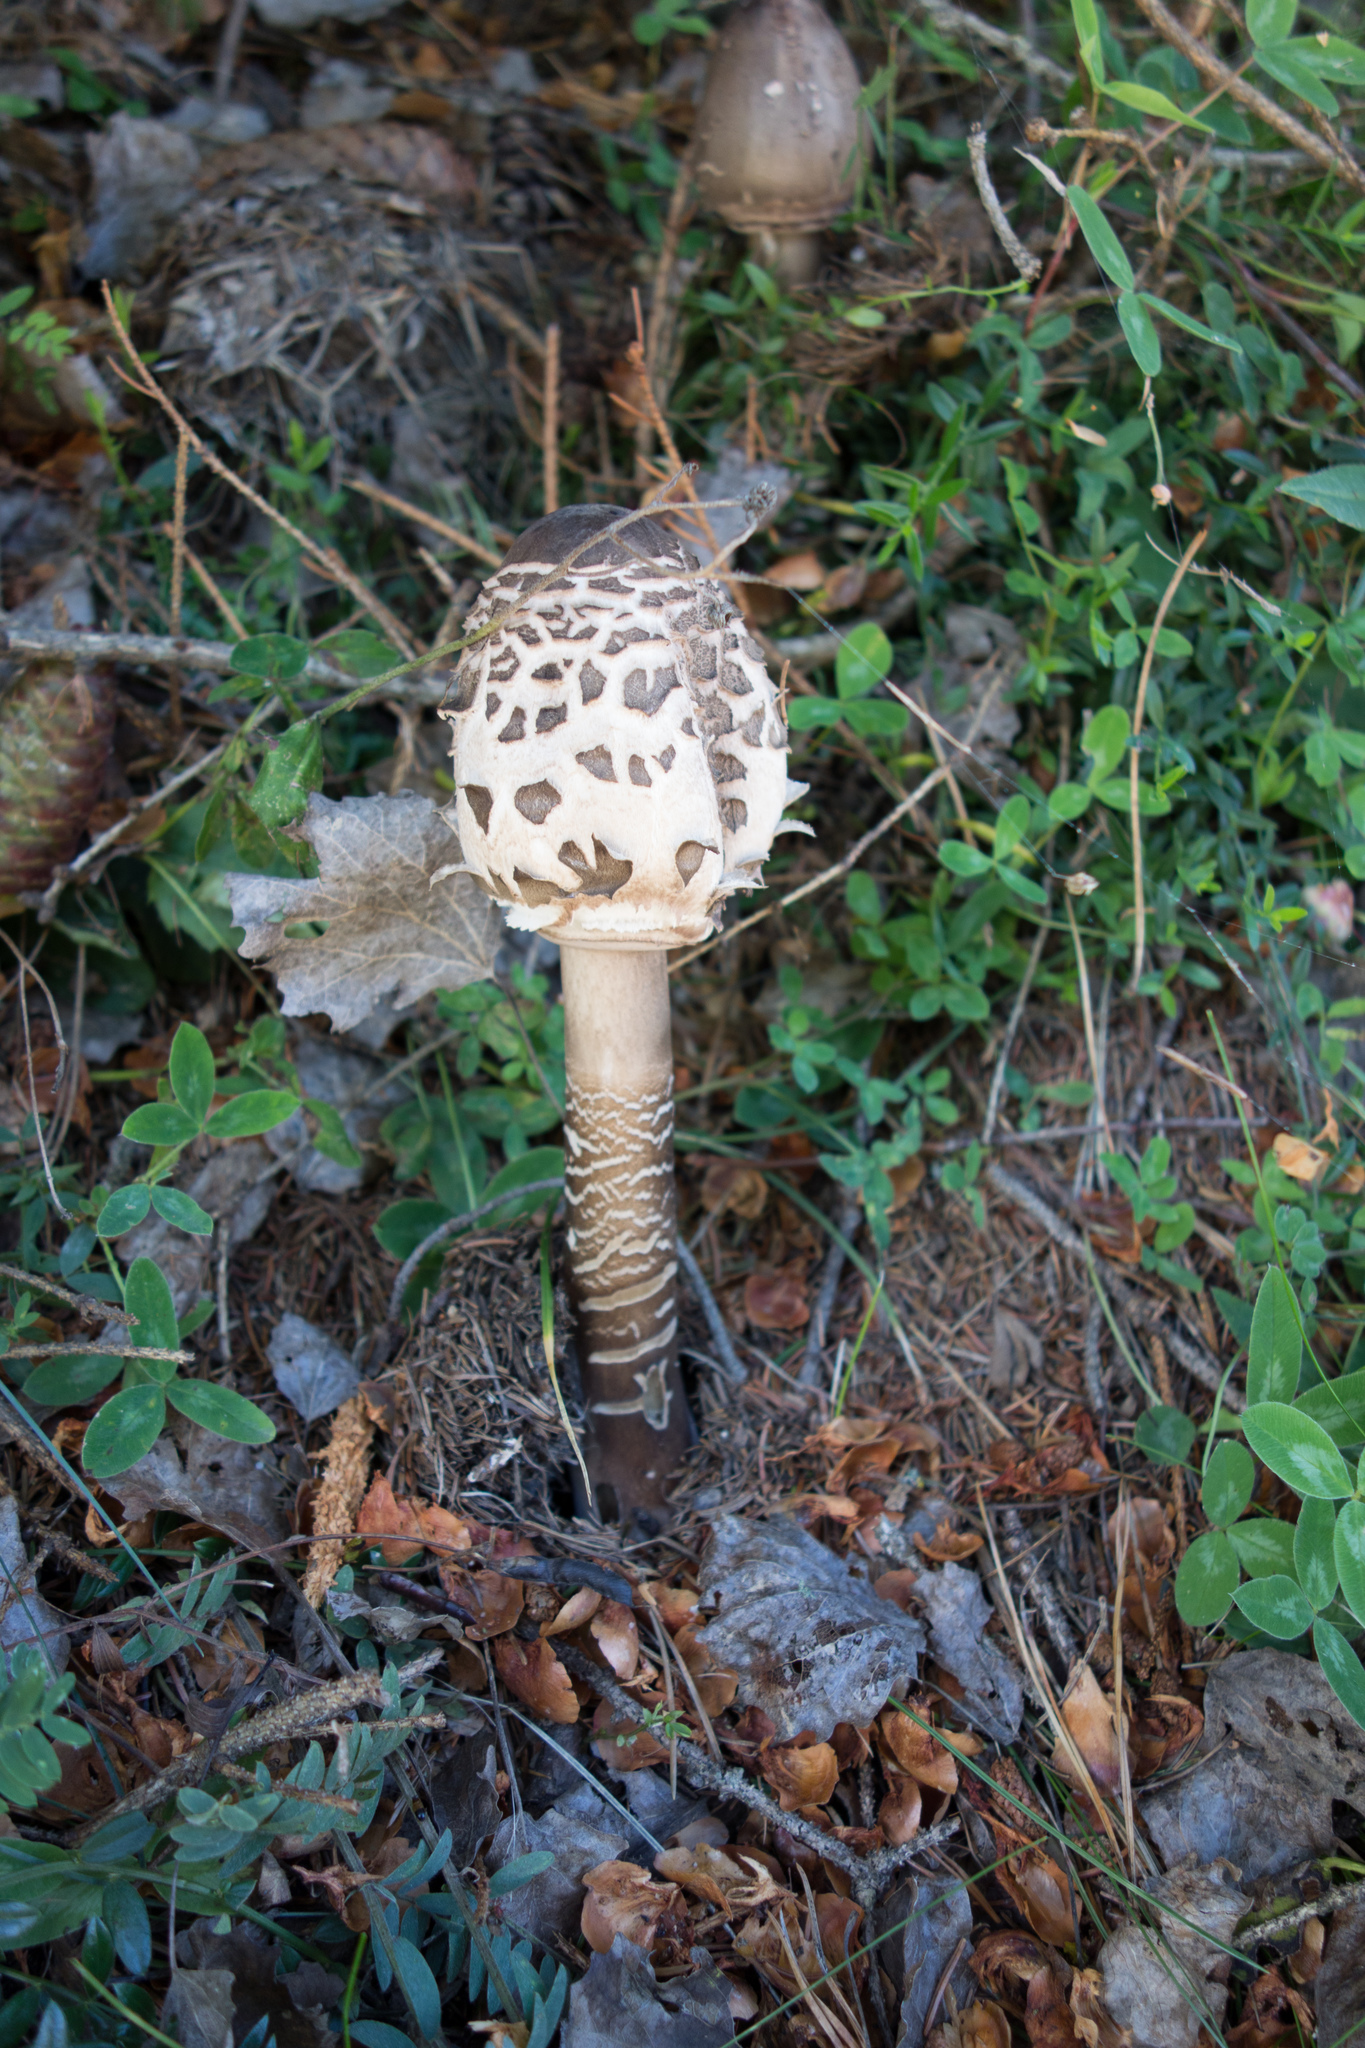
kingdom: Fungi
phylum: Basidiomycota
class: Agaricomycetes
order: Agaricales
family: Agaricaceae
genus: Macrolepiota
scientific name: Macrolepiota procera
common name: Parasol
